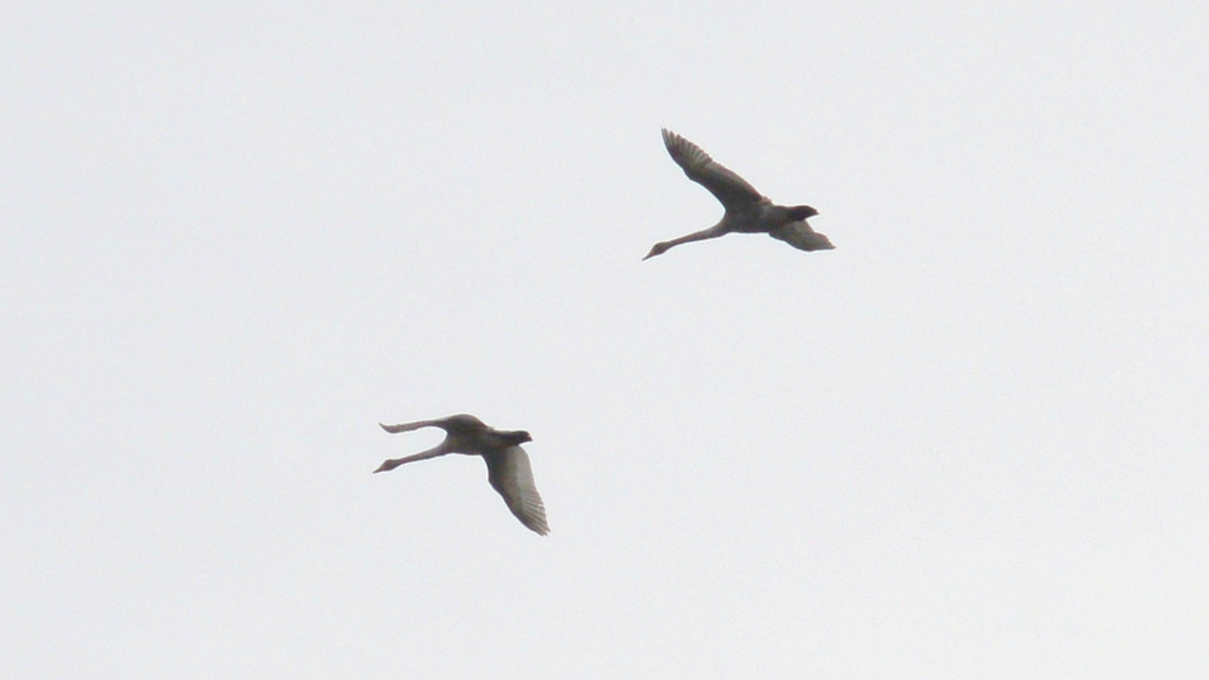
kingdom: Animalia
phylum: Chordata
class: Aves
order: Anseriformes
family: Anatidae
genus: Cygnus
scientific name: Cygnus cygnus
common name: Whooper swan
